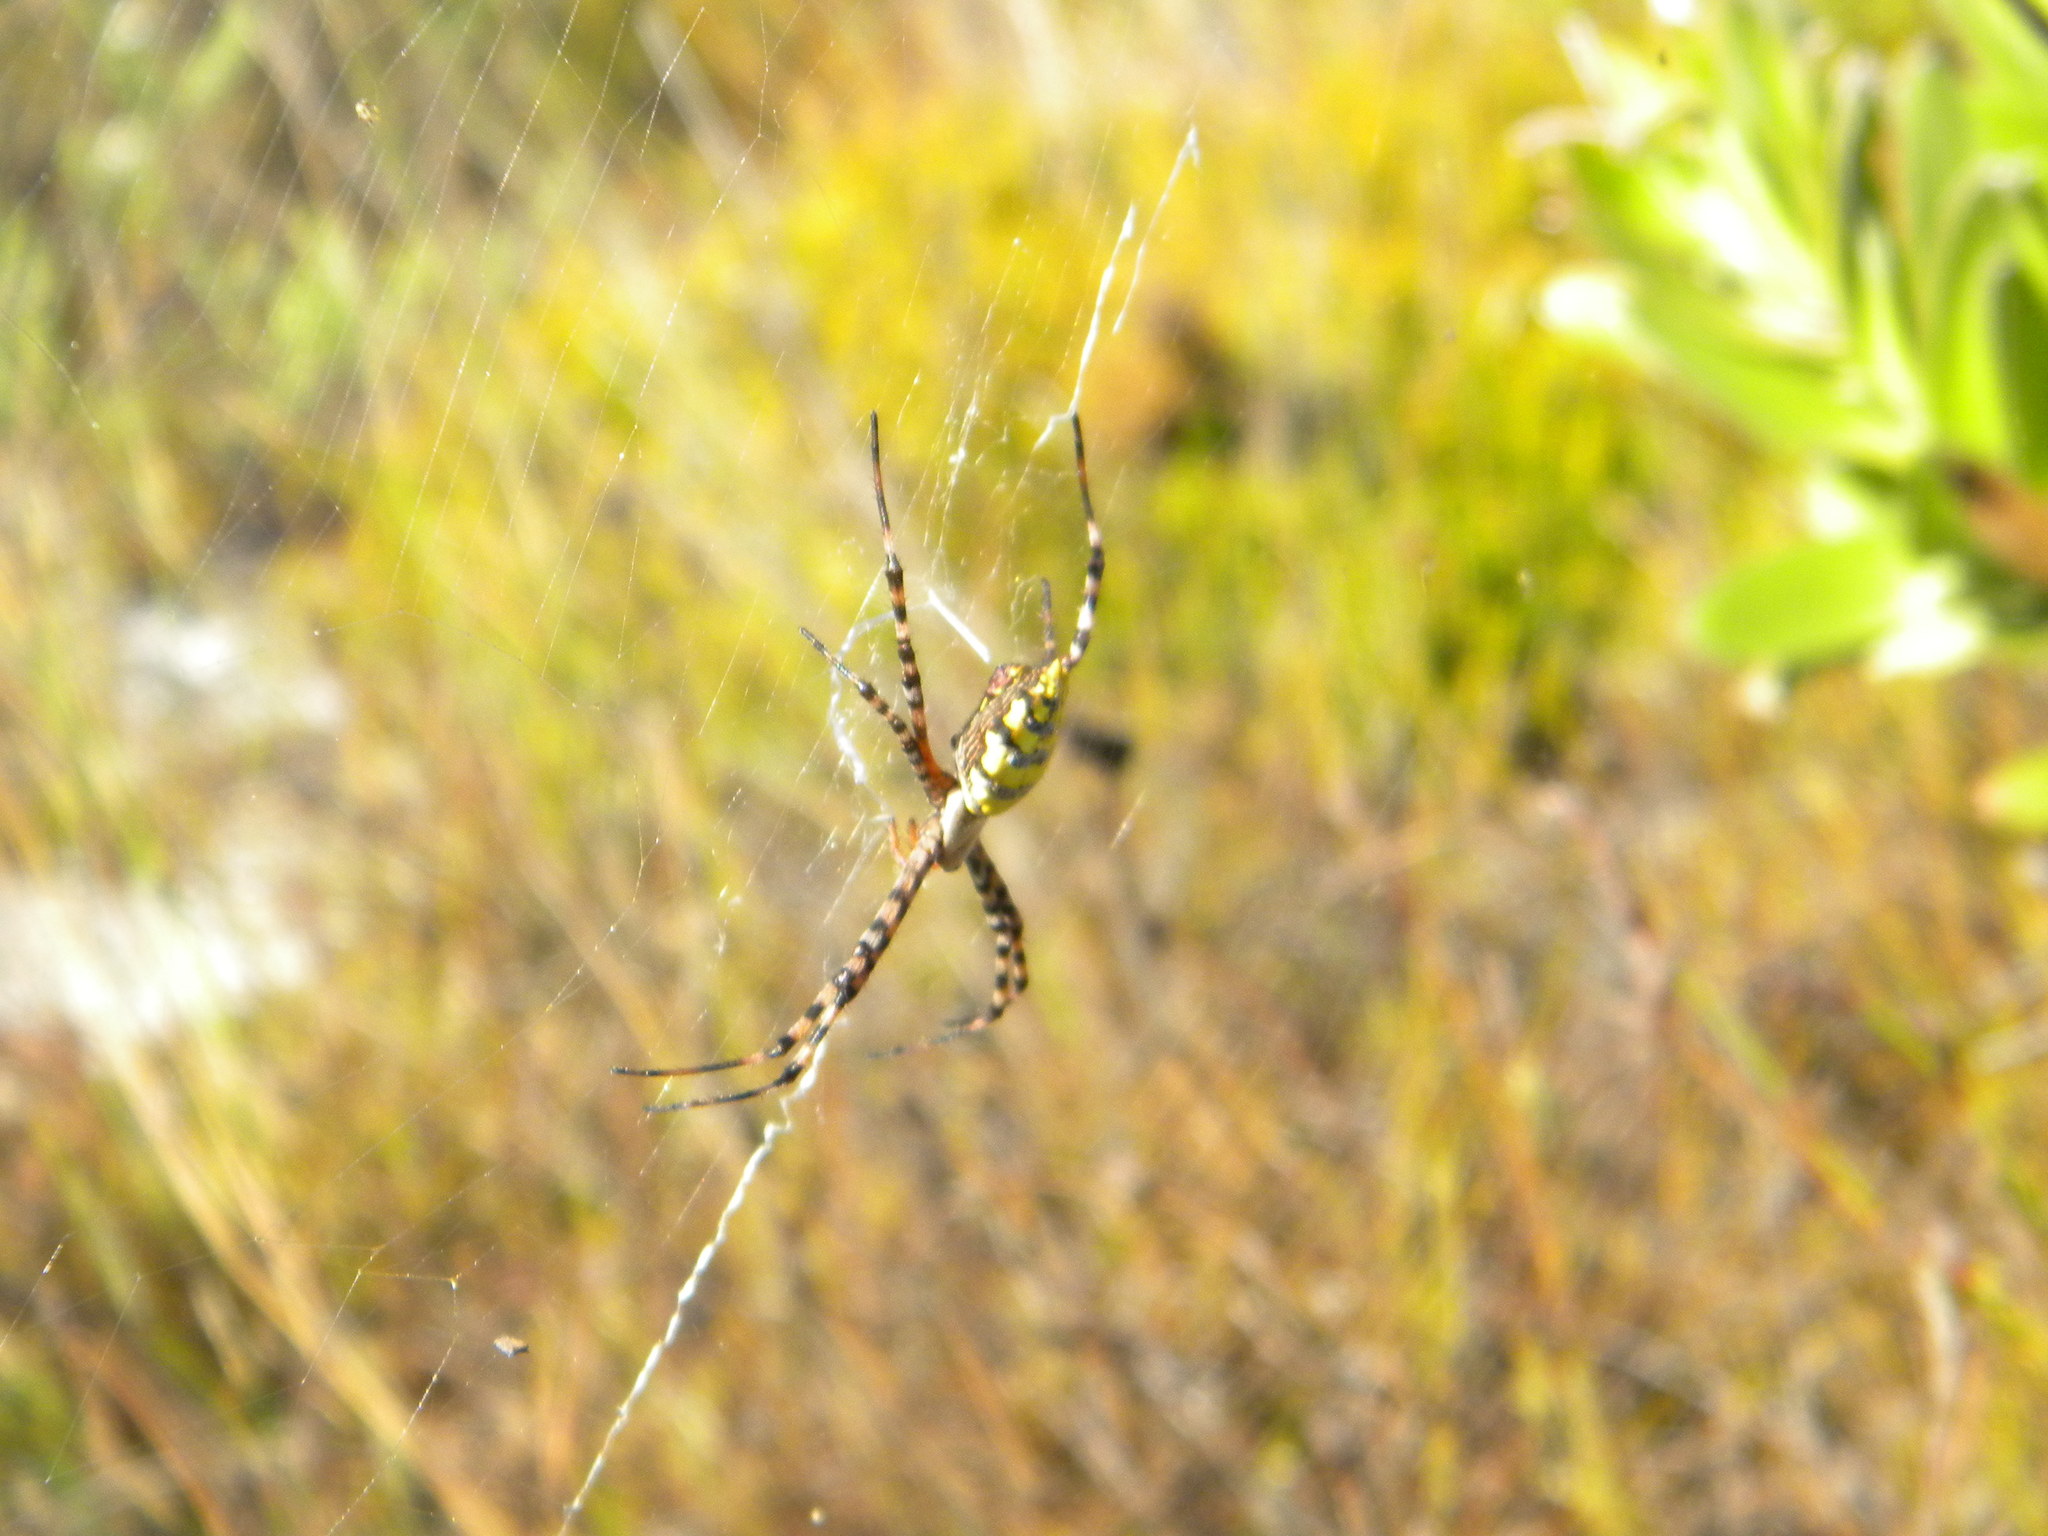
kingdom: Animalia
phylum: Arthropoda
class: Arachnida
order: Araneae
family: Araneidae
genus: Argiope
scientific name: Argiope australis
